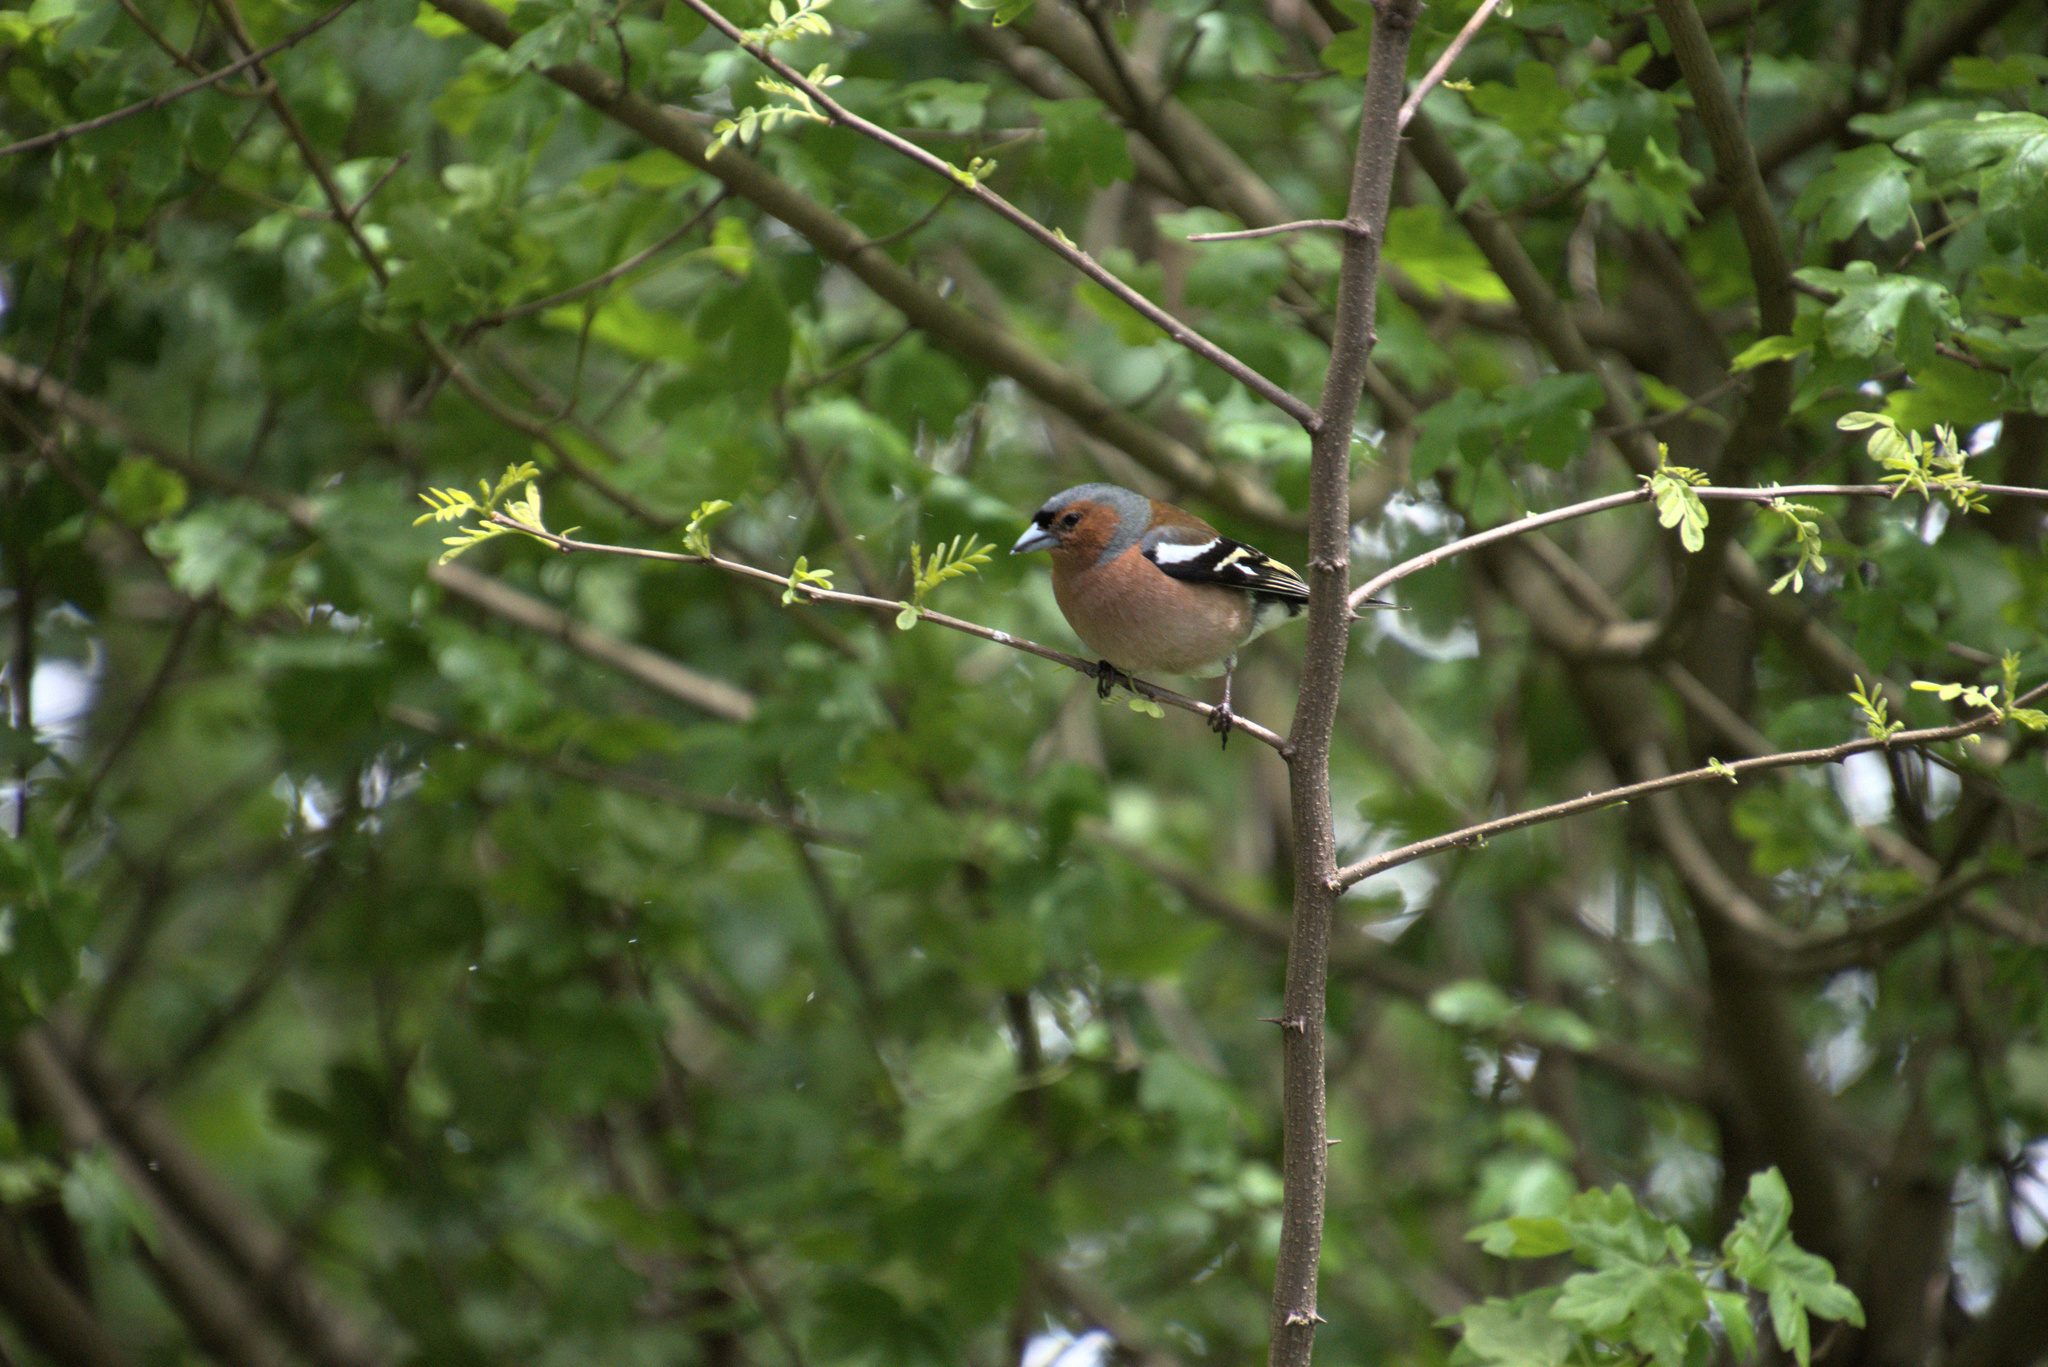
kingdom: Animalia
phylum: Chordata
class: Aves
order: Passeriformes
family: Fringillidae
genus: Fringilla
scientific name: Fringilla coelebs
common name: Common chaffinch
